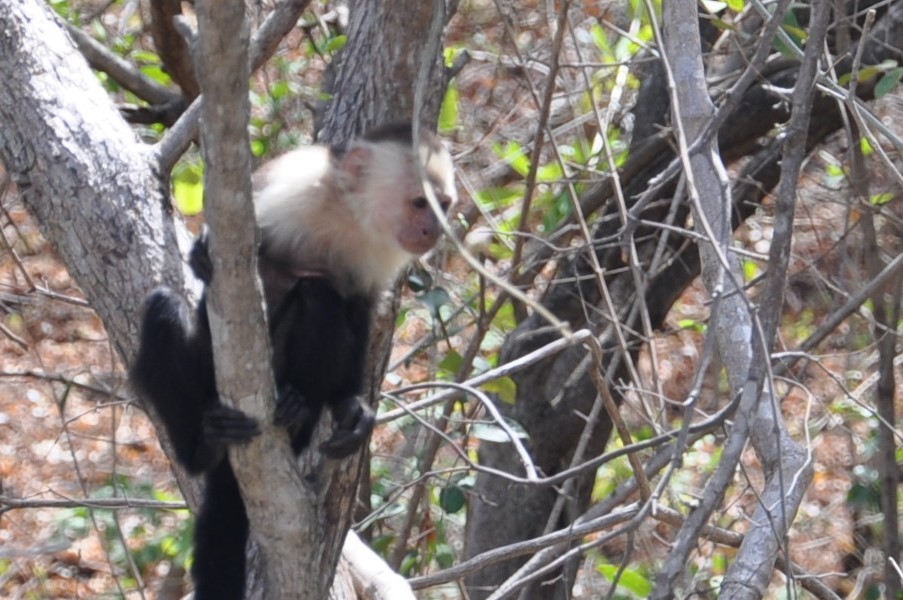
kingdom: Animalia
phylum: Chordata
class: Mammalia
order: Primates
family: Cebidae
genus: Cebus
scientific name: Cebus imitator
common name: Panamanian white-faced capuchin
